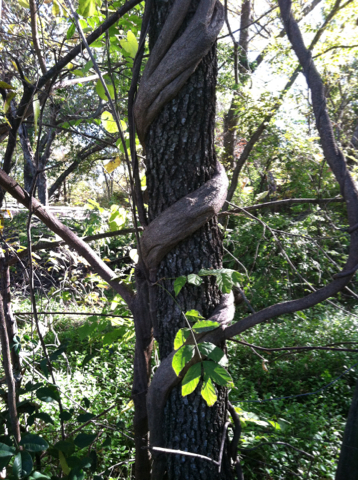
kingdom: Plantae
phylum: Tracheophyta
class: Magnoliopsida
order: Lamiales
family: Bignoniaceae
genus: Campsis
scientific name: Campsis radicans
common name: Trumpet-creeper
